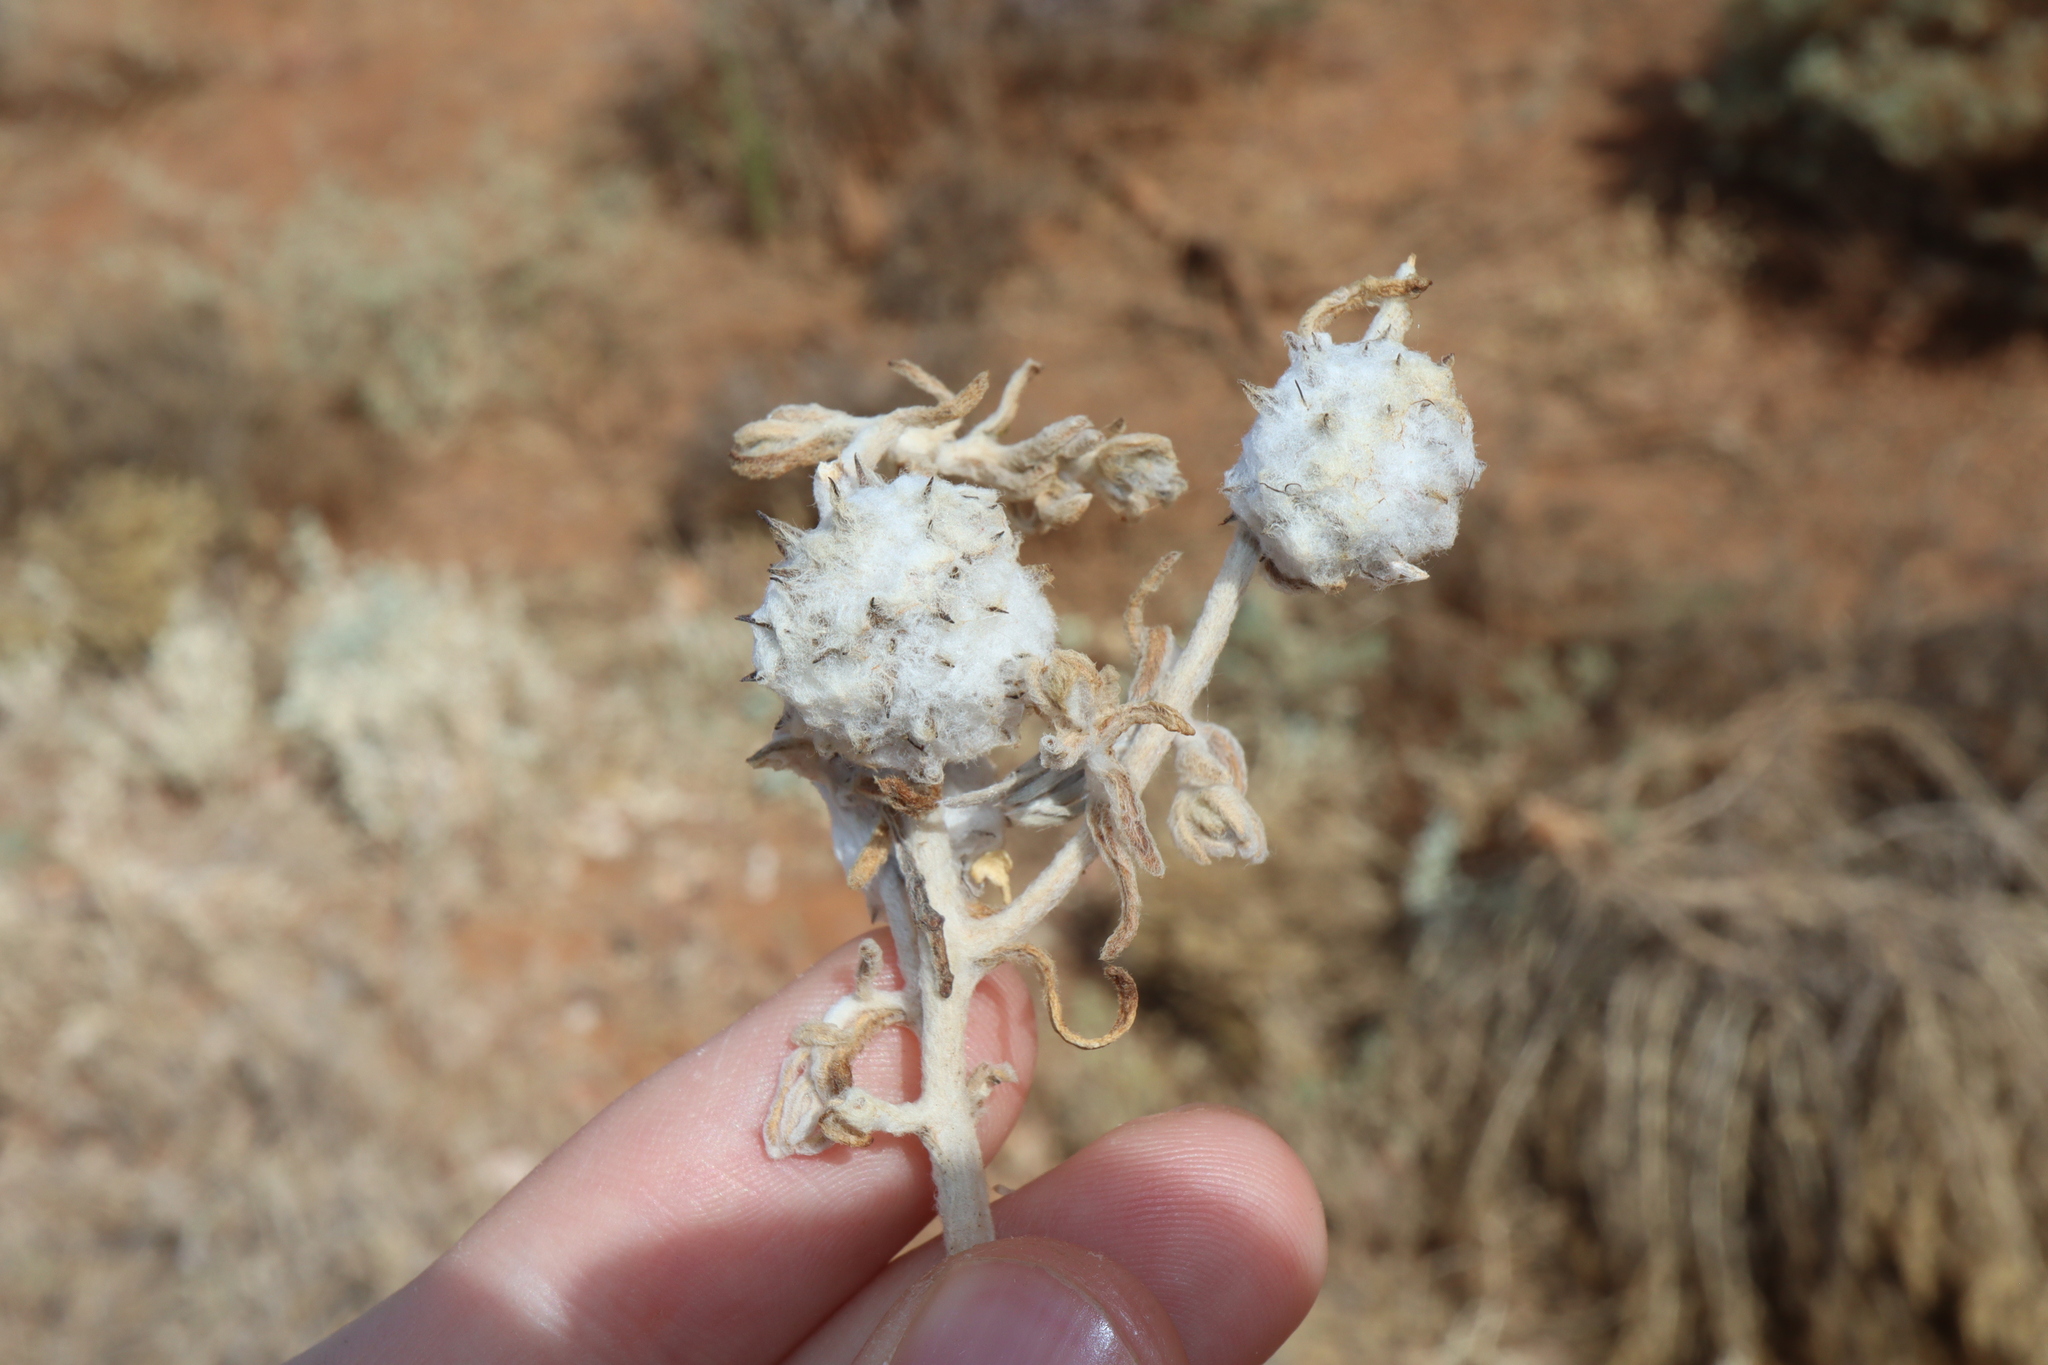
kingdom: Plantae
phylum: Tracheophyta
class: Magnoliopsida
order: Caryophyllales
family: Amaranthaceae
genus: Dissocarpus
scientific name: Dissocarpus paradoxus
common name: Bur-saltbush
